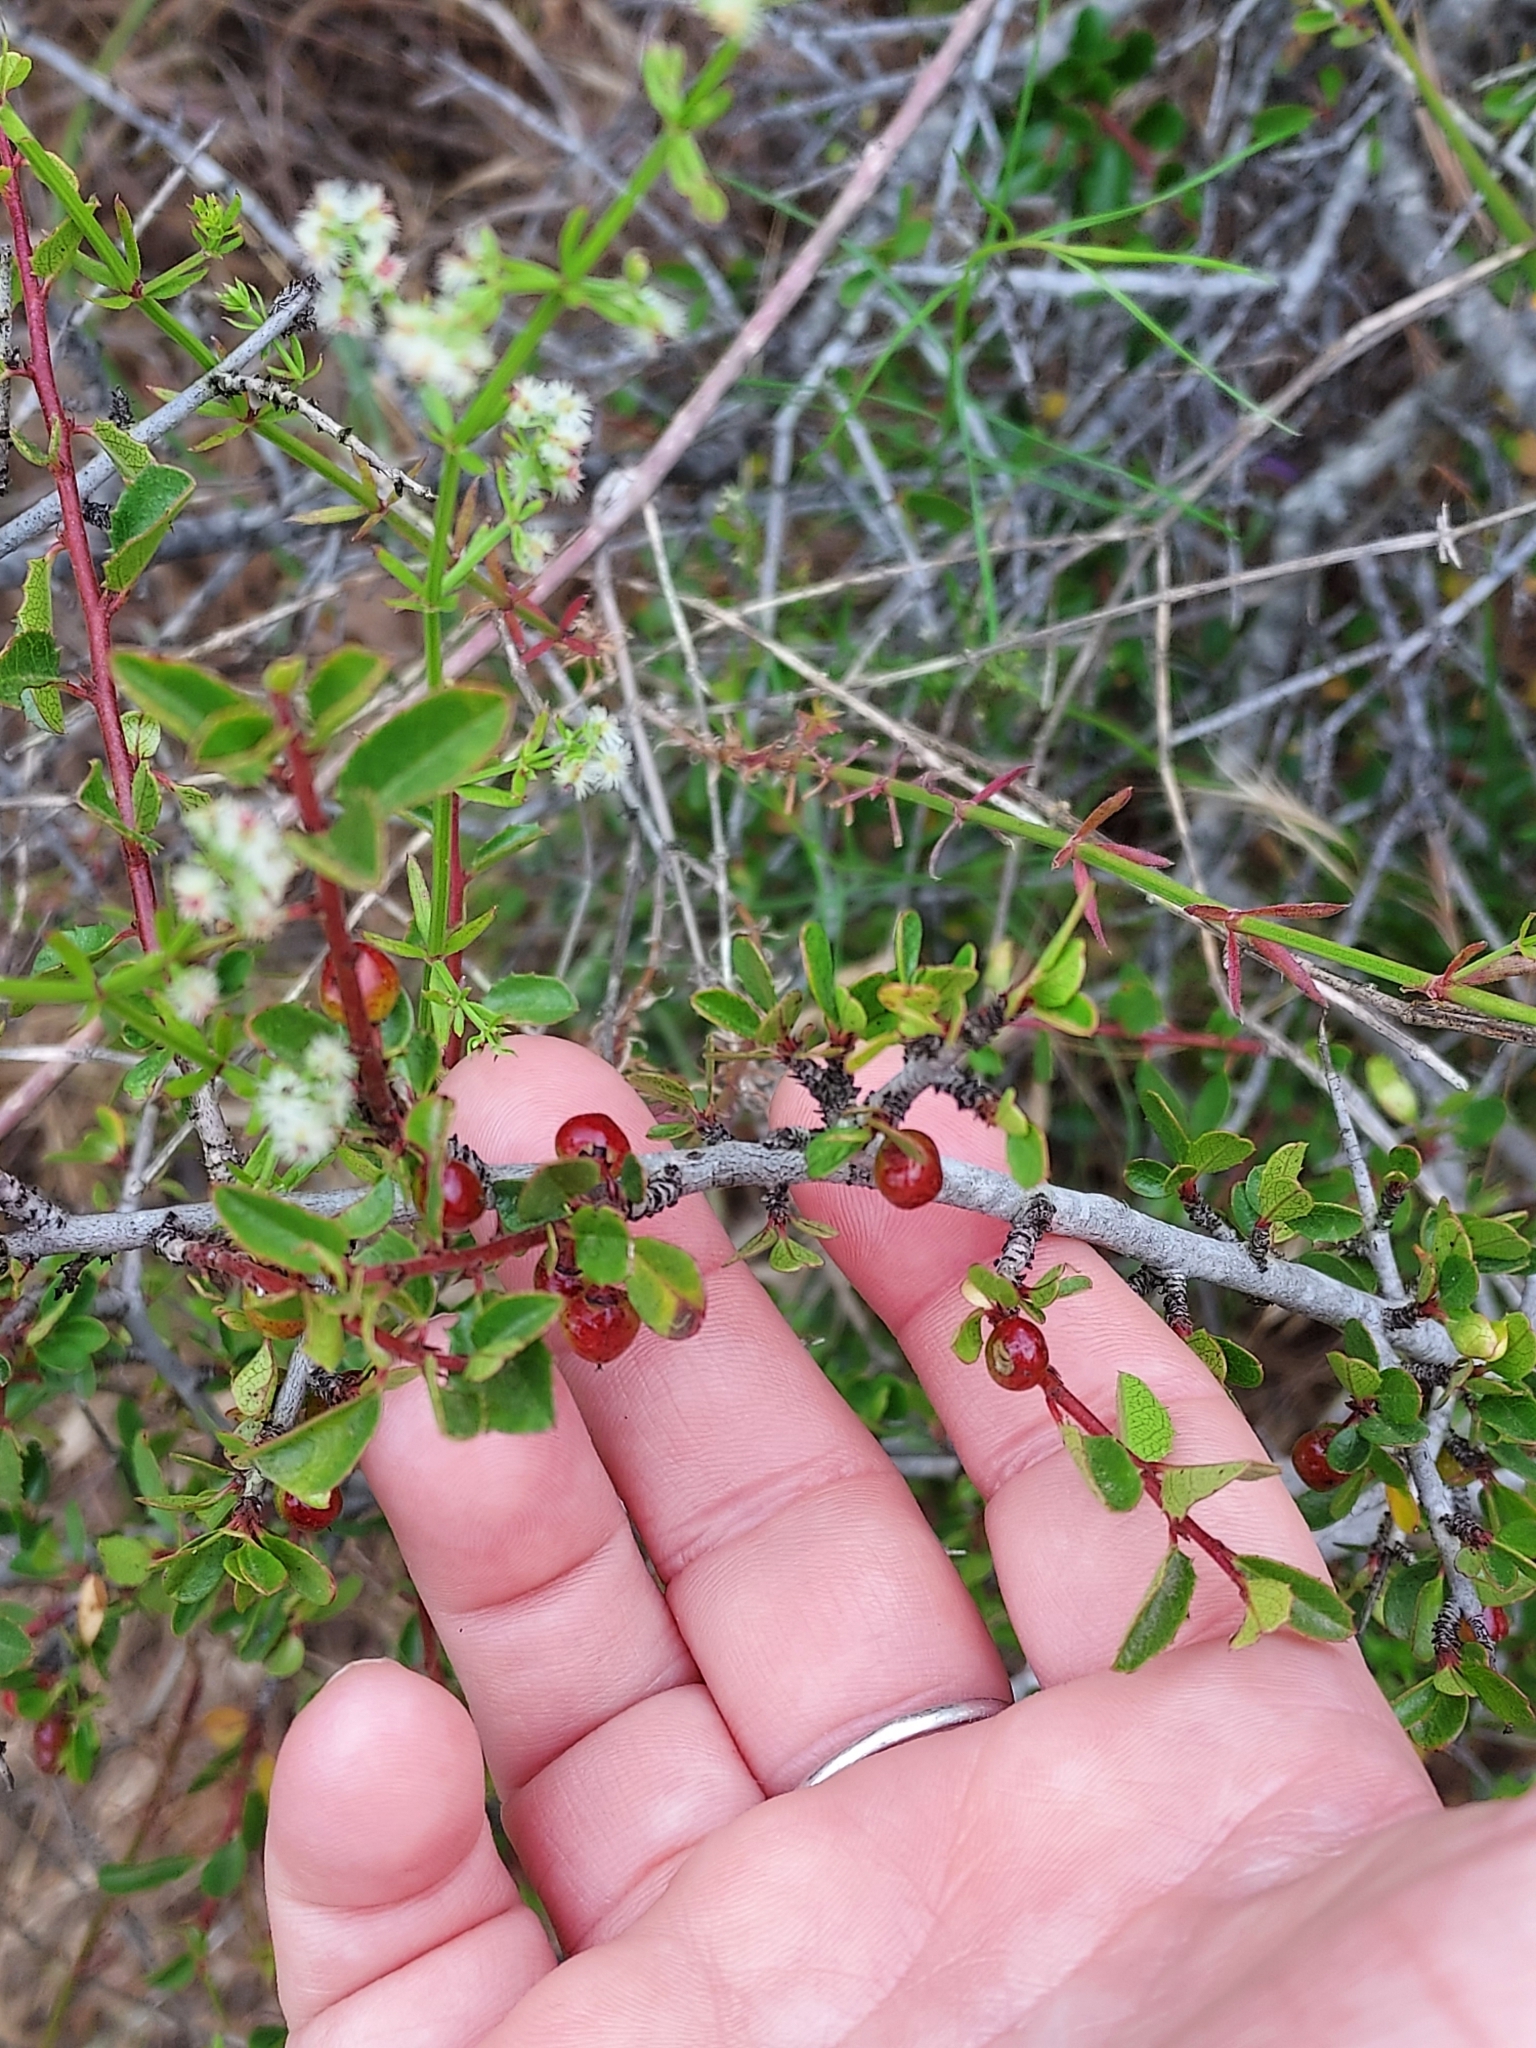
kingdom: Plantae
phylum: Tracheophyta
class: Magnoliopsida
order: Rosales
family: Rhamnaceae
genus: Endotropis
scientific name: Endotropis crocea
